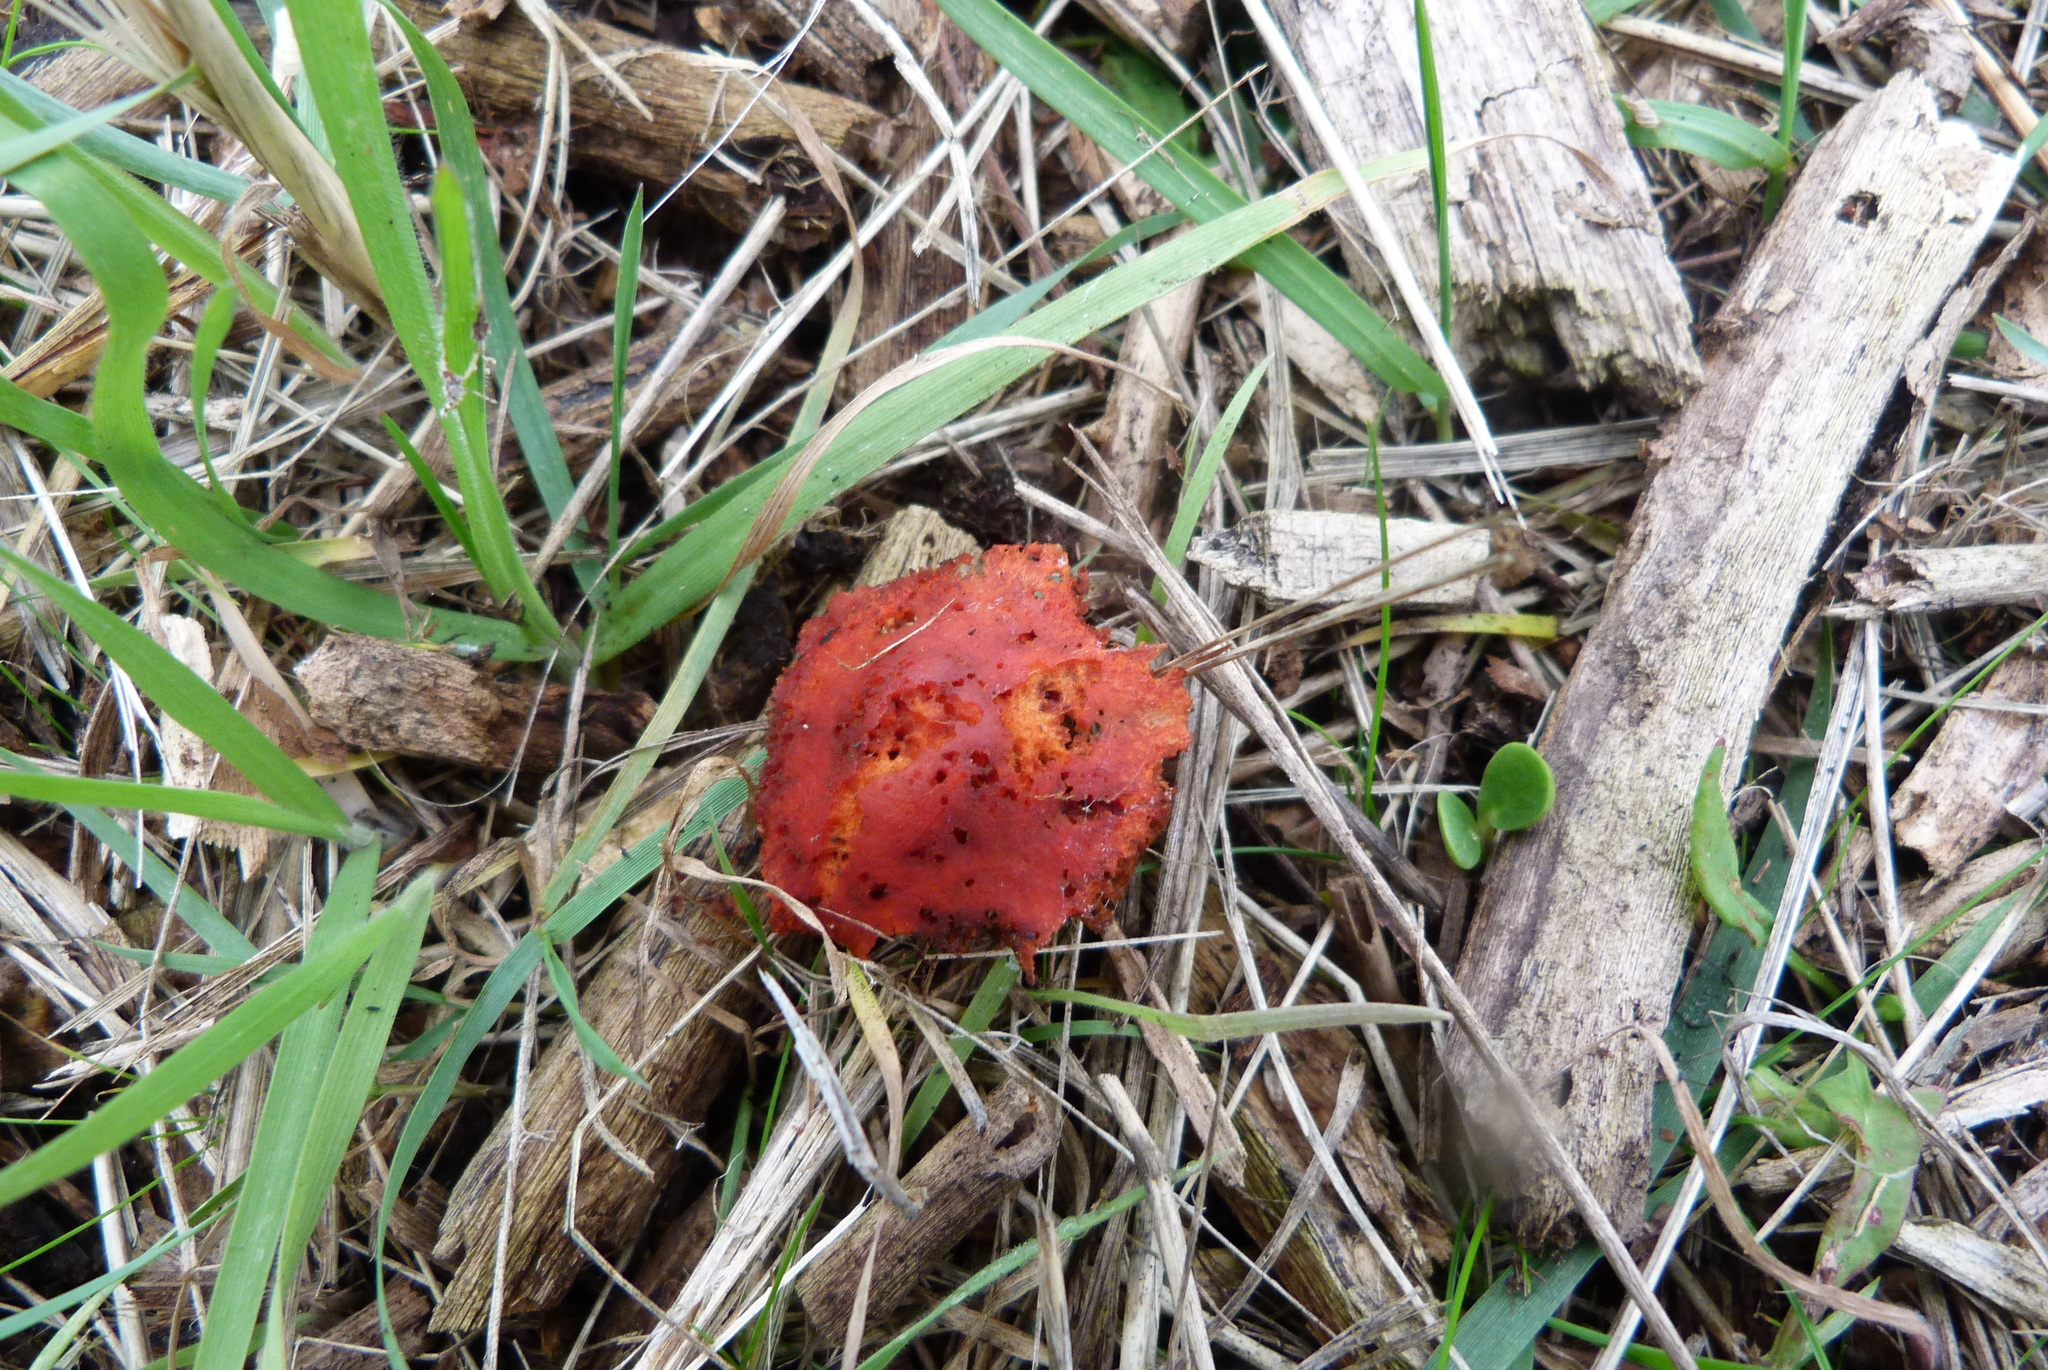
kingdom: Fungi
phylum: Basidiomycota
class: Agaricomycetes
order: Agaricales
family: Strophariaceae
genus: Leratiomyces
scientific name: Leratiomyces ceres
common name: Redlead roundhead
